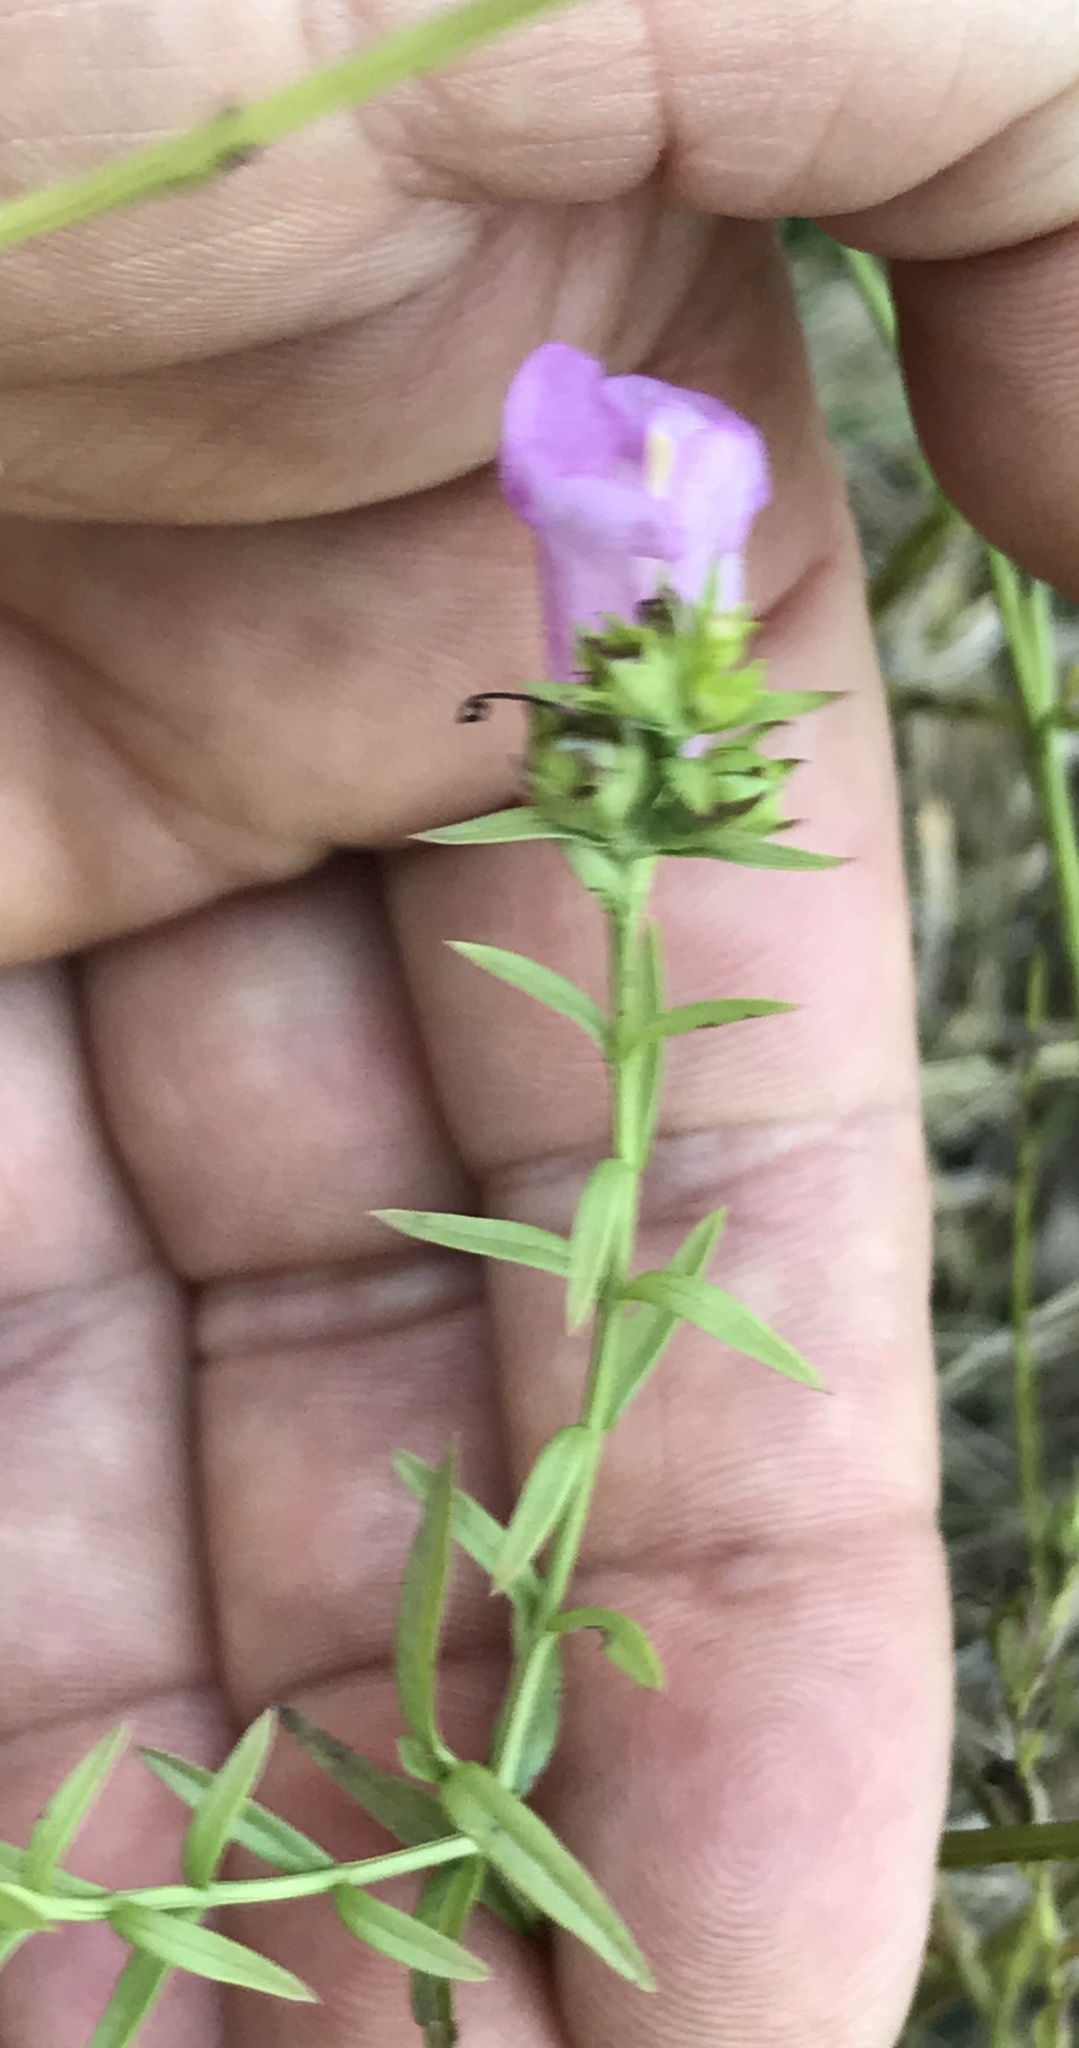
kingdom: Plantae
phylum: Tracheophyta
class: Magnoliopsida
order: Lamiales
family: Orobanchaceae
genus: Agalinis
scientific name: Agalinis heterophylla
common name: Prairie agalinis
